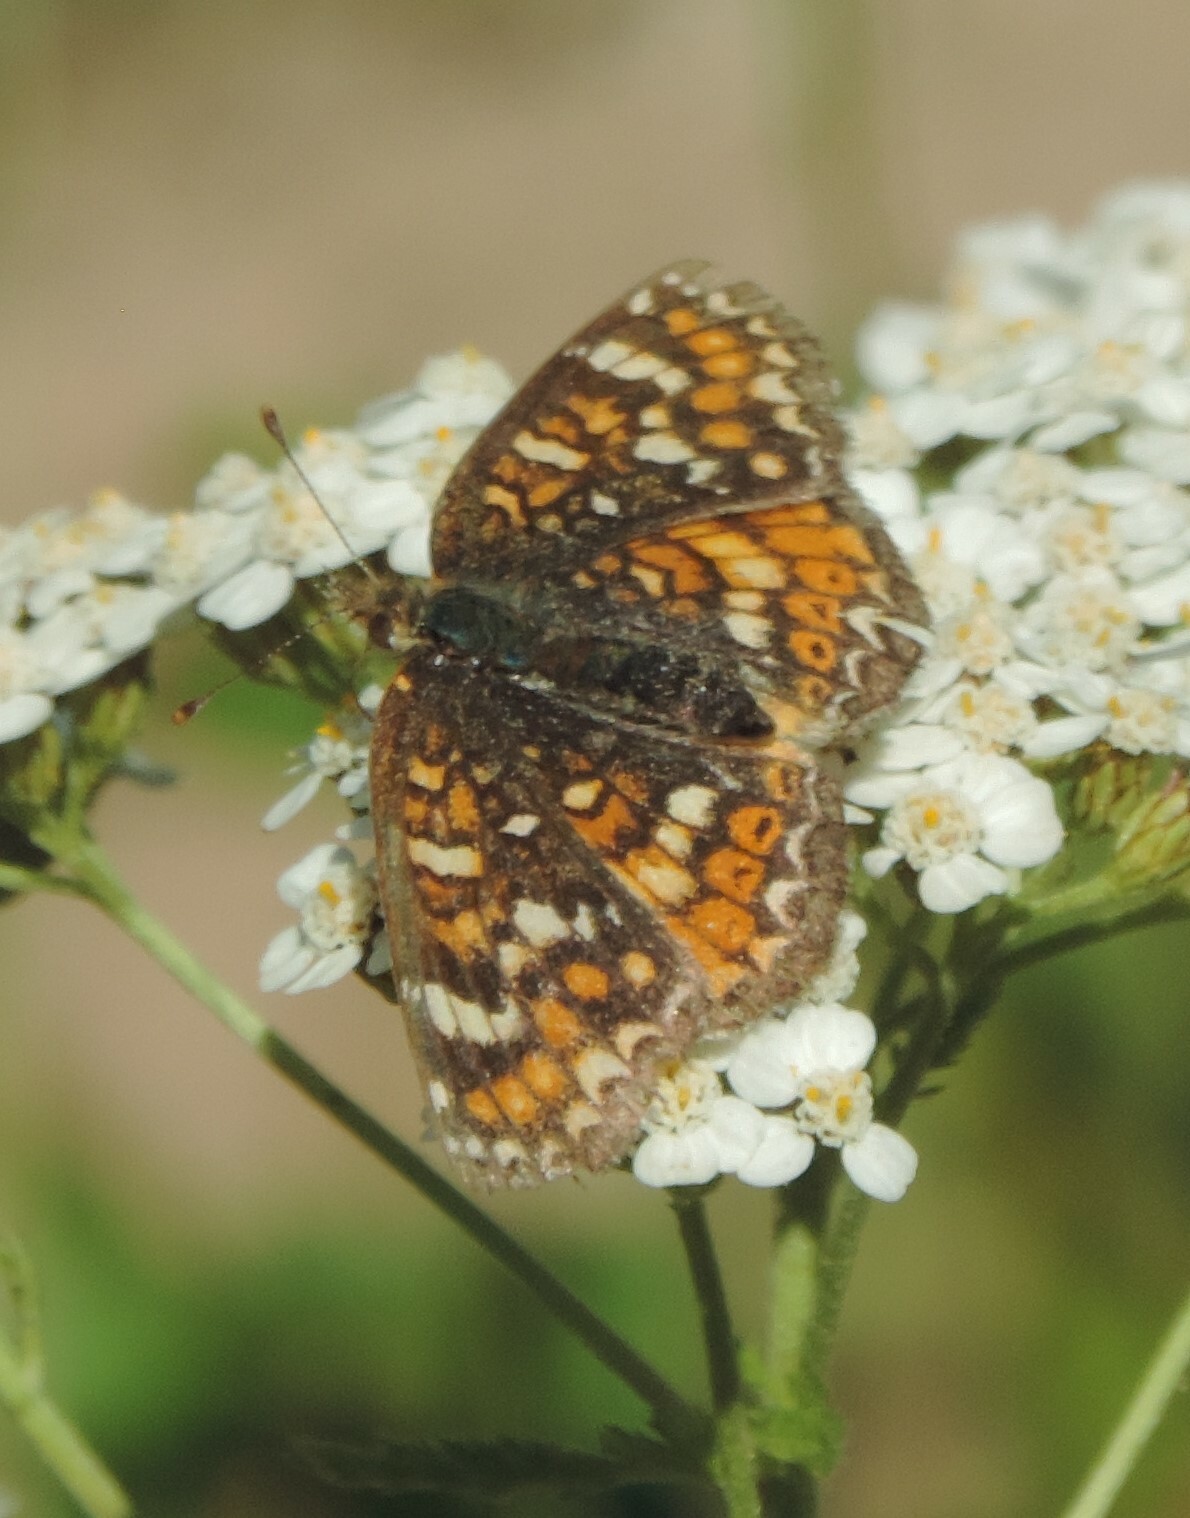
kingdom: Animalia
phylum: Arthropoda
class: Insecta
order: Lepidoptera
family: Nymphalidae
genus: Phyciodes
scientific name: Phyciodes tharos
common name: Pearl crescent
